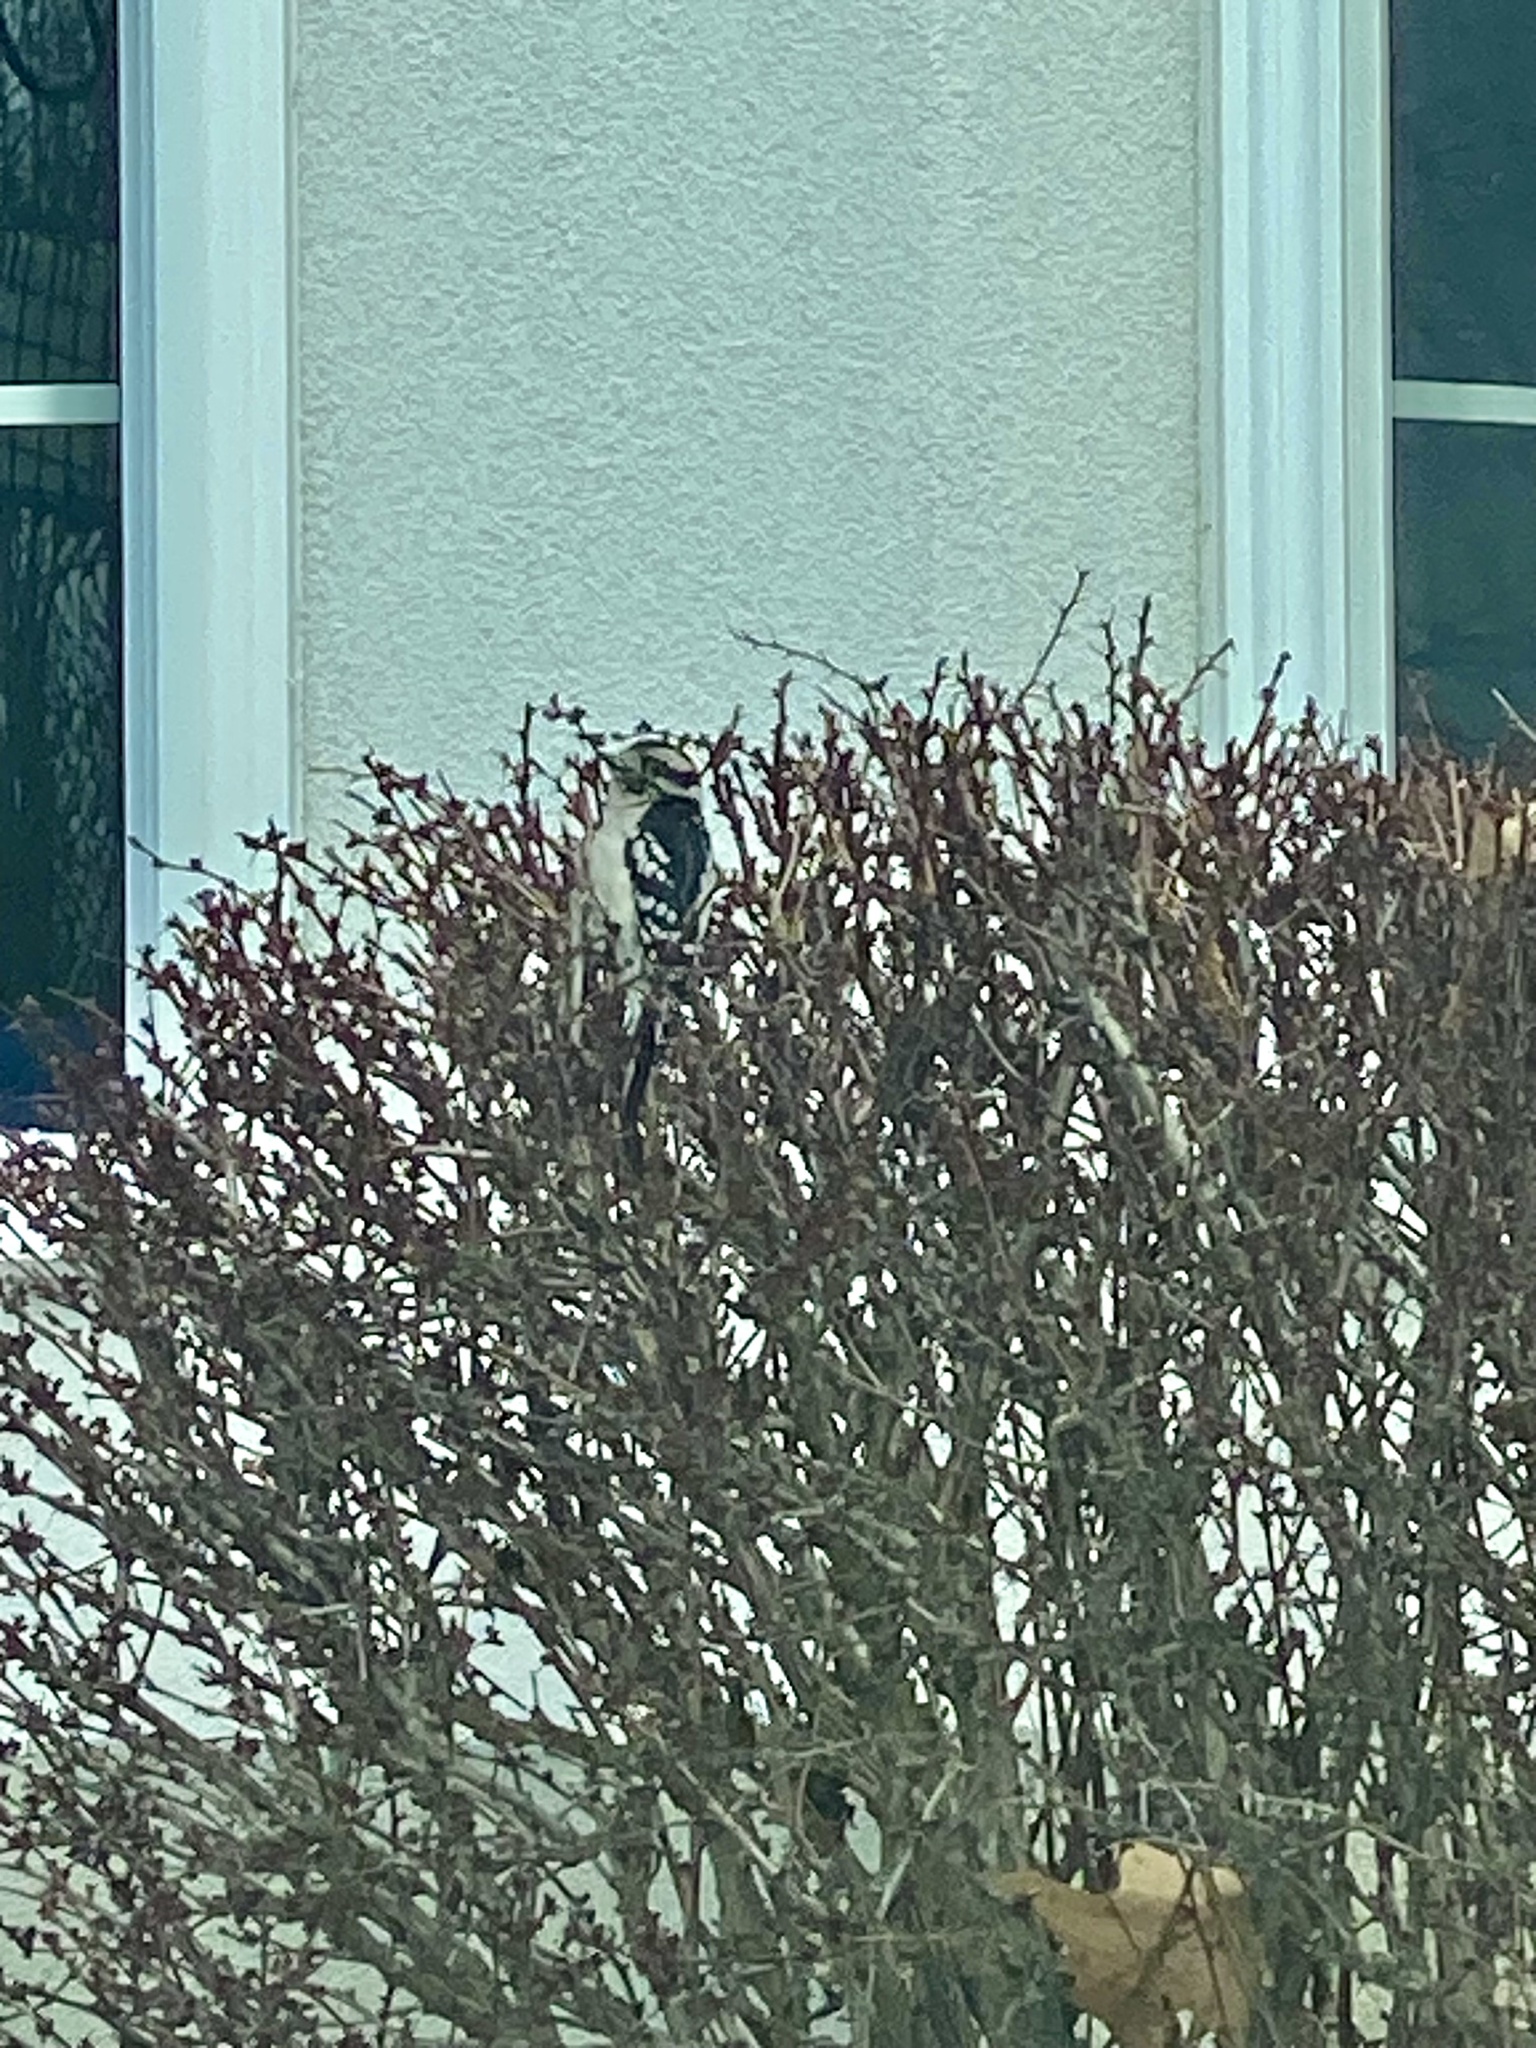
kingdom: Animalia
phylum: Chordata
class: Aves
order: Piciformes
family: Picidae
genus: Dryobates
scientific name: Dryobates pubescens
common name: Downy woodpecker
